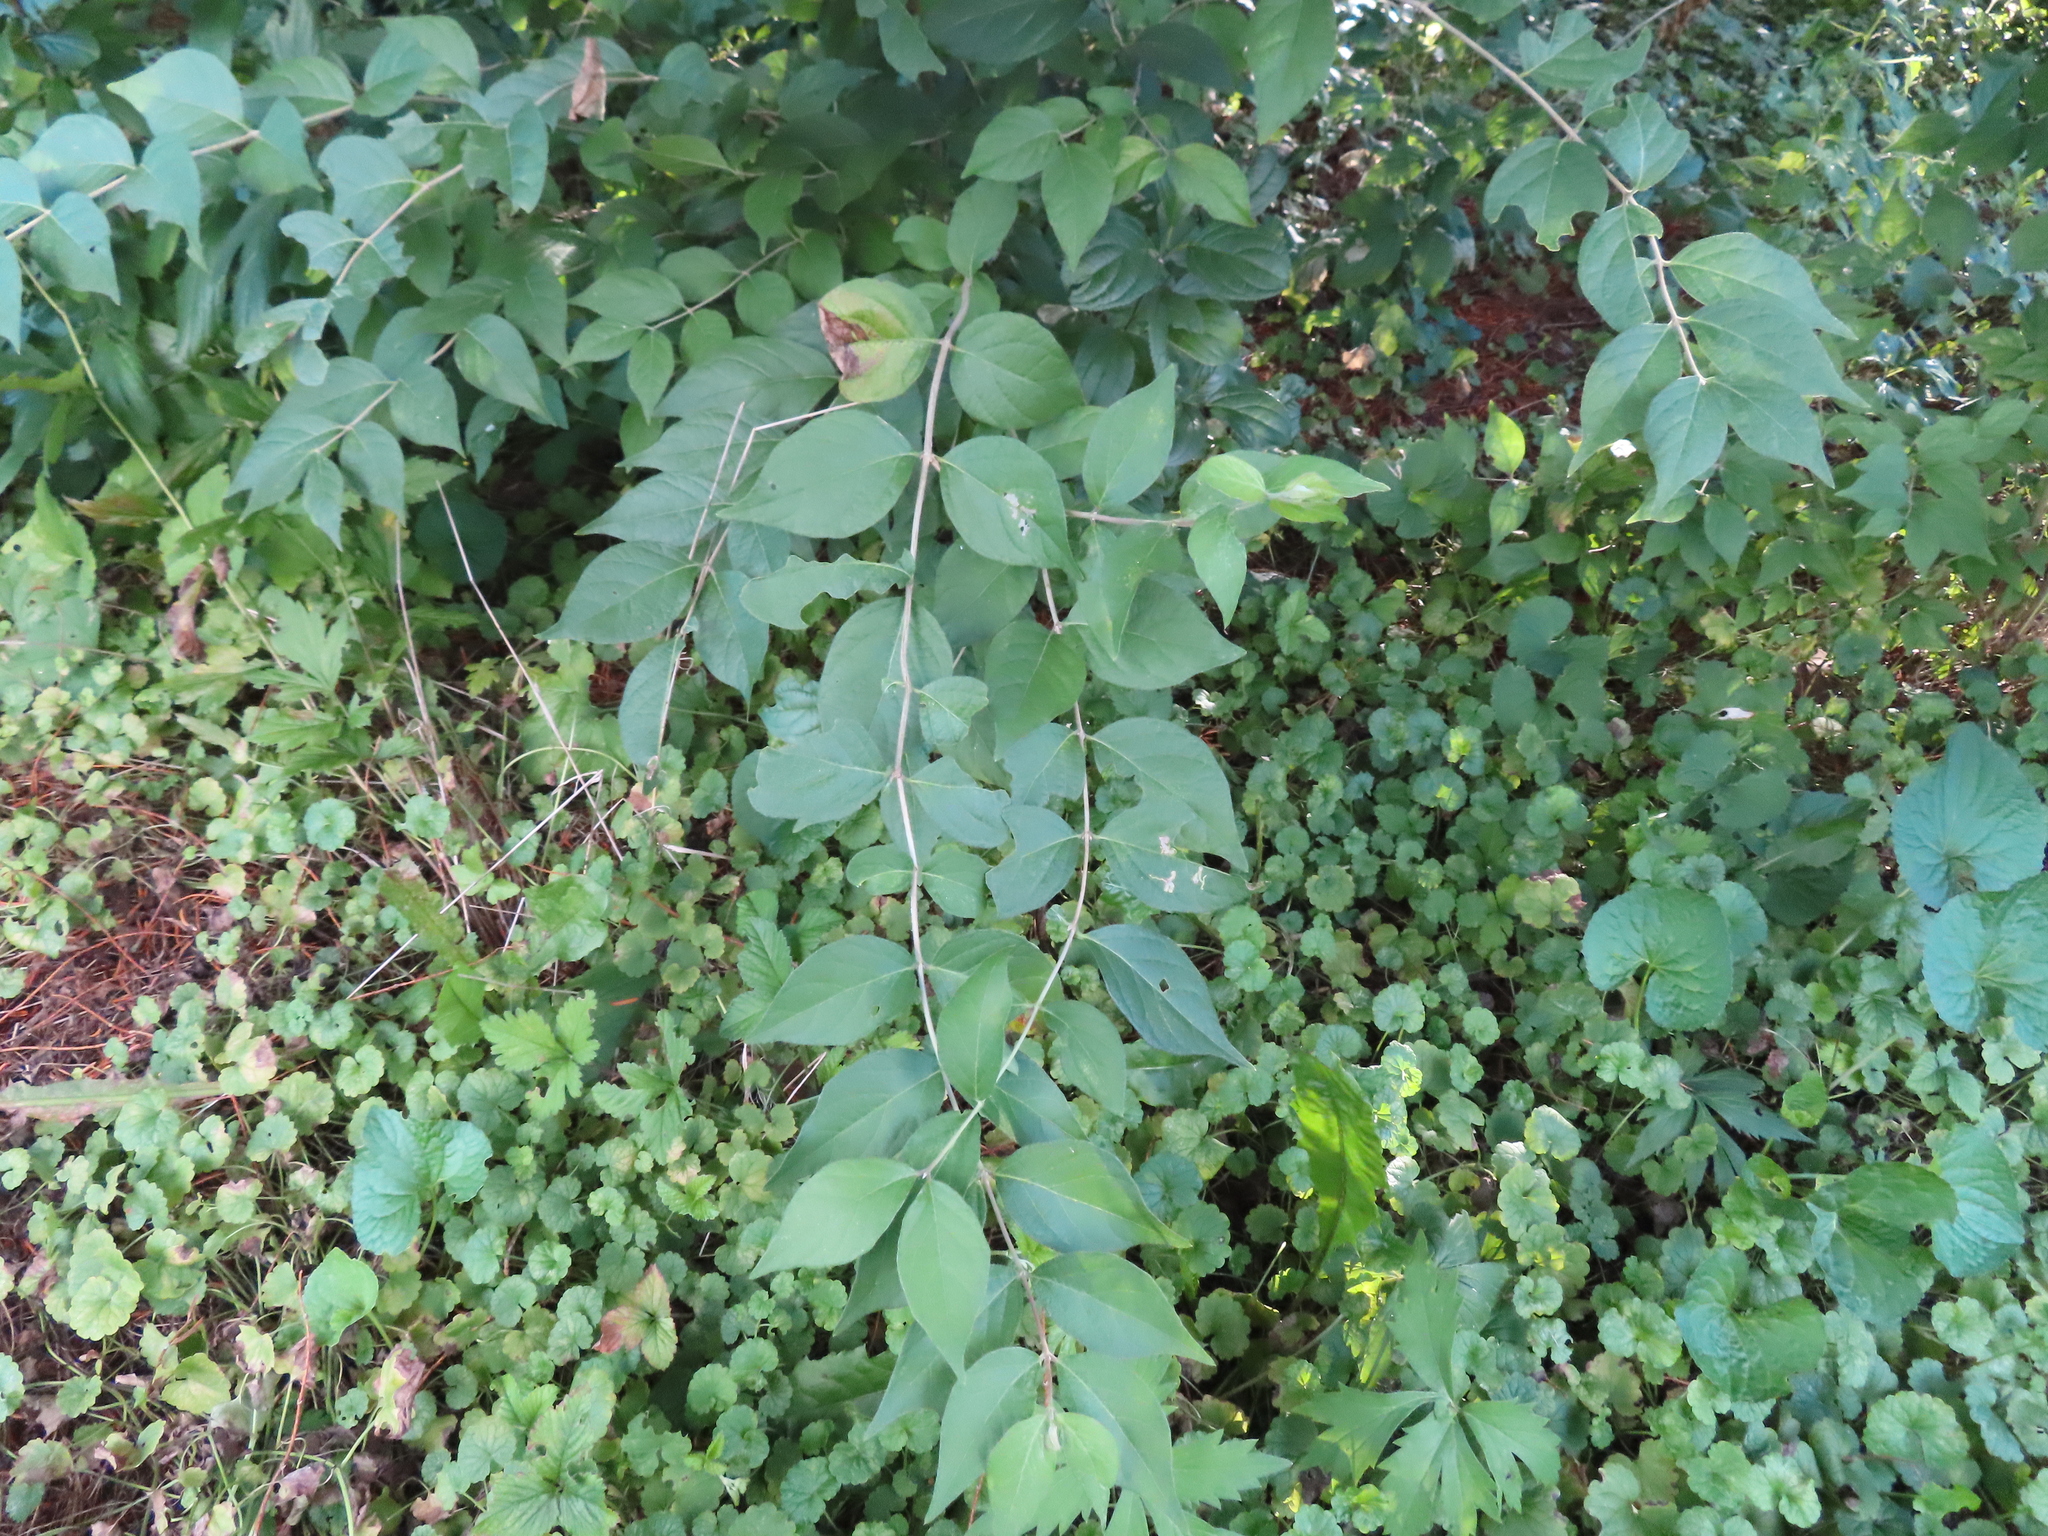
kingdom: Plantae
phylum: Tracheophyta
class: Magnoliopsida
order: Dipsacales
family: Caprifoliaceae
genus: Lonicera
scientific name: Lonicera maackii
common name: Amur honeysuckle
